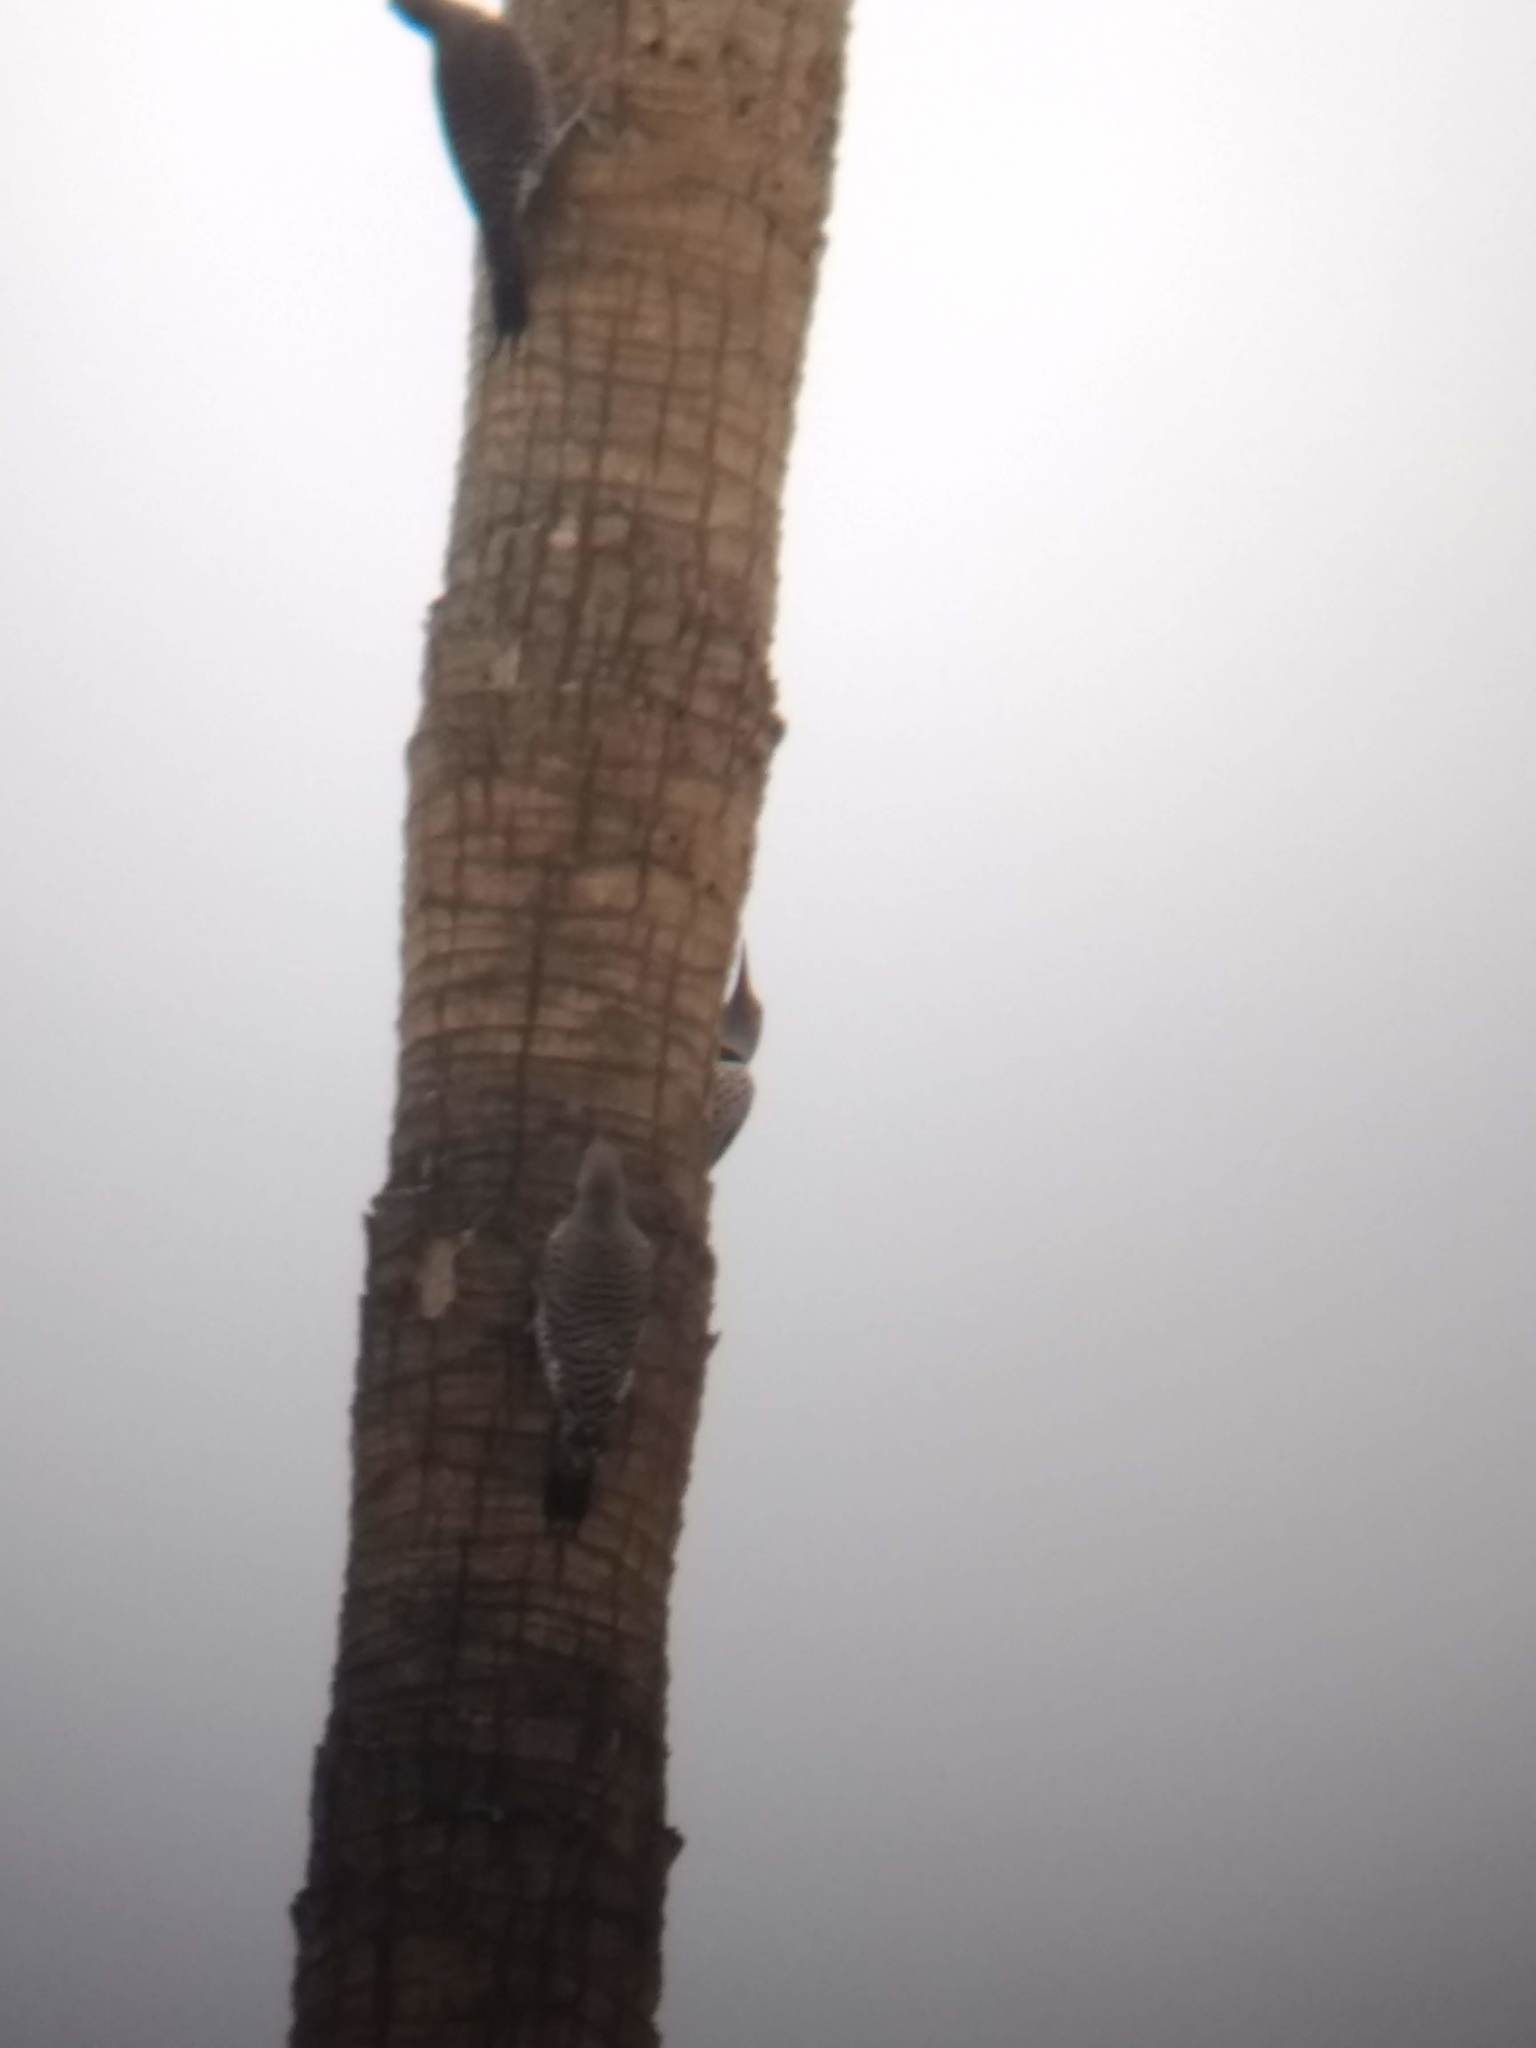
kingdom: Animalia
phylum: Chordata
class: Aves
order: Piciformes
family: Picidae
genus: Colaptes
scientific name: Colaptes auratus
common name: Northern flicker
